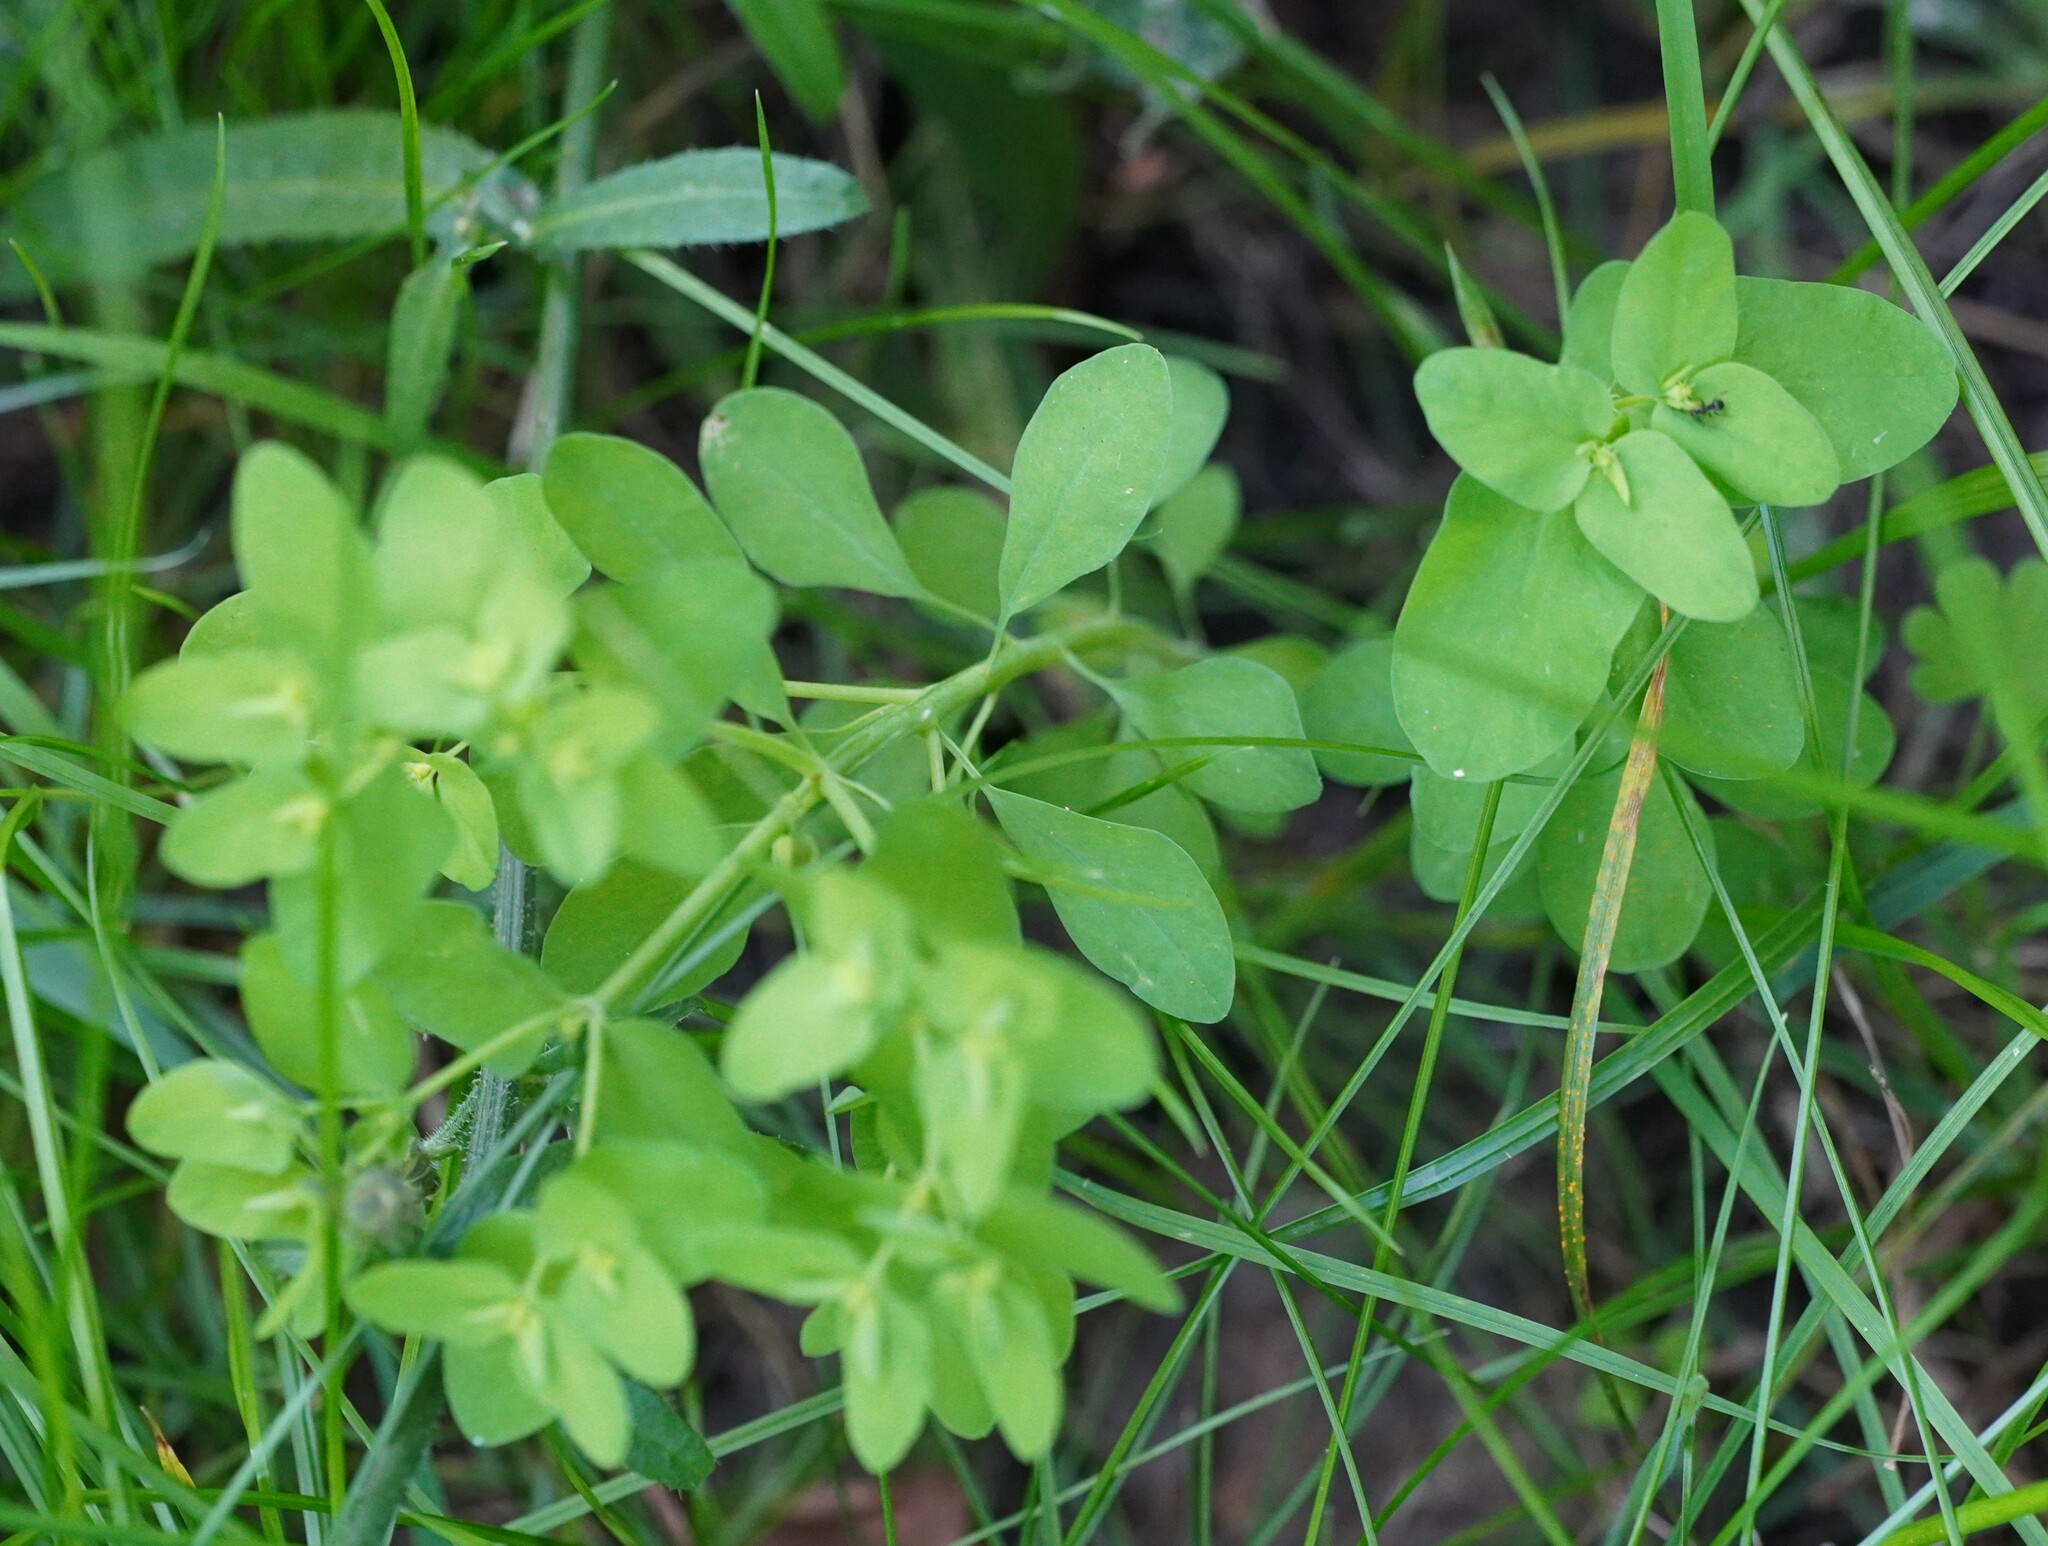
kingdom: Plantae
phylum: Tracheophyta
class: Magnoliopsida
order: Malpighiales
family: Euphorbiaceae
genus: Euphorbia
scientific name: Euphorbia peplus
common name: Petty spurge
